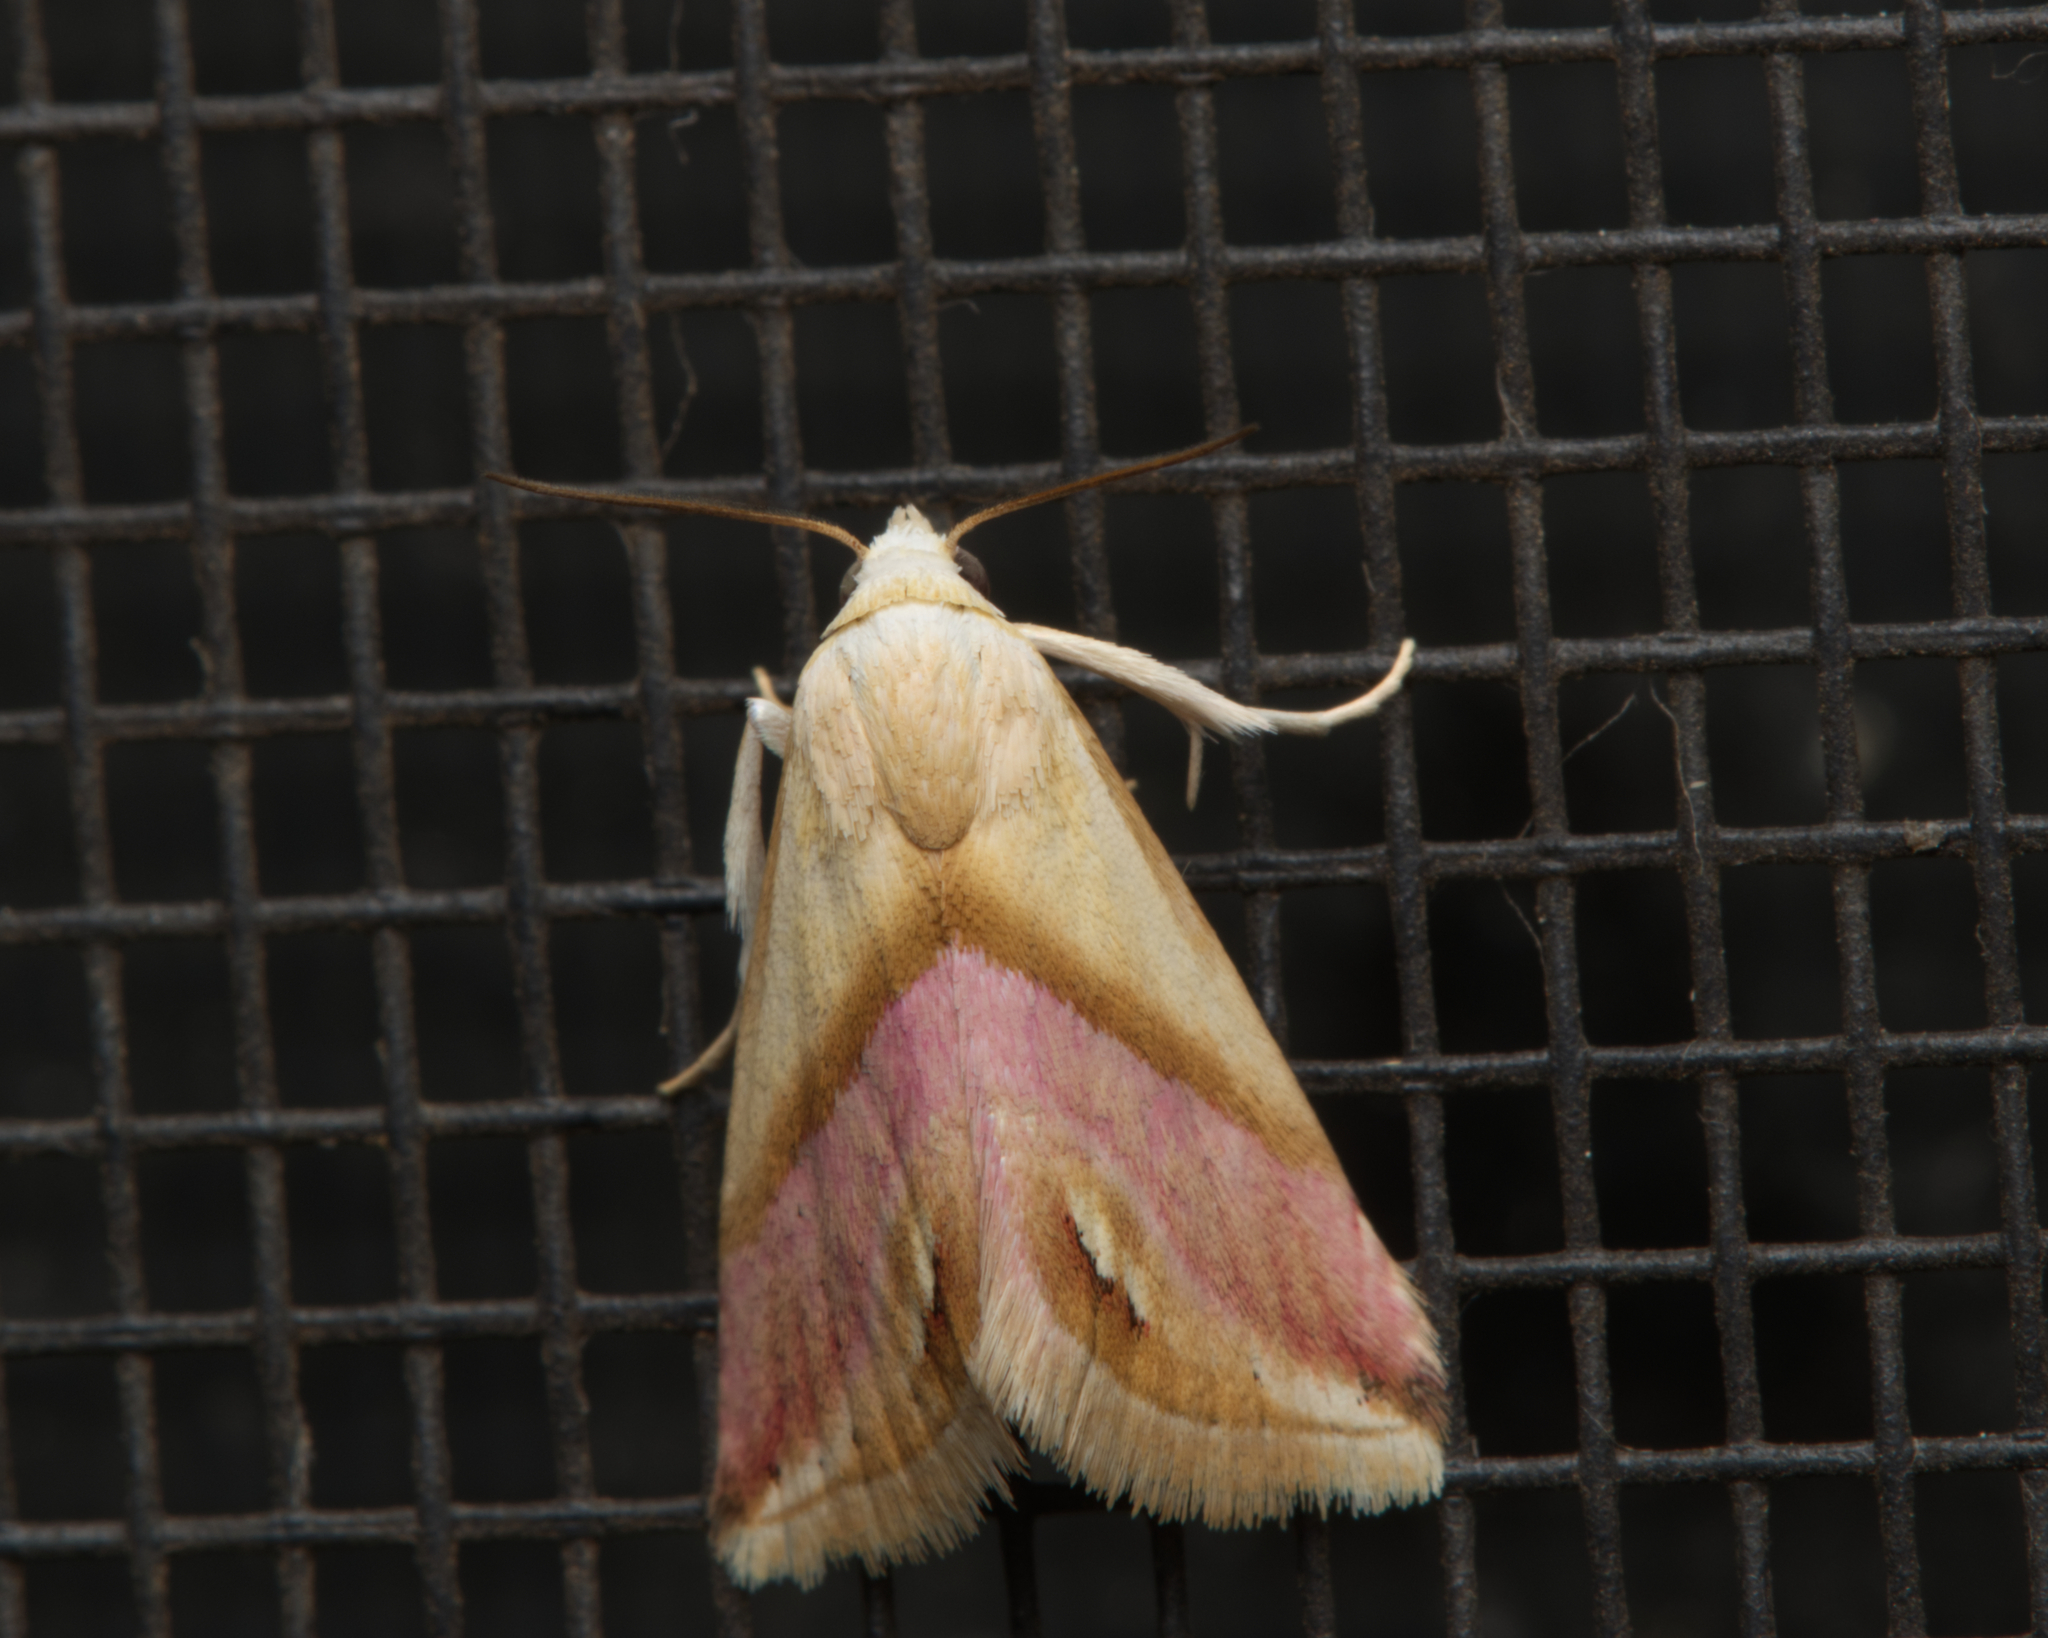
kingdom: Animalia
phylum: Arthropoda
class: Insecta
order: Lepidoptera
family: Noctuidae
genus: Eublemma
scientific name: Eublemma cochylioides
